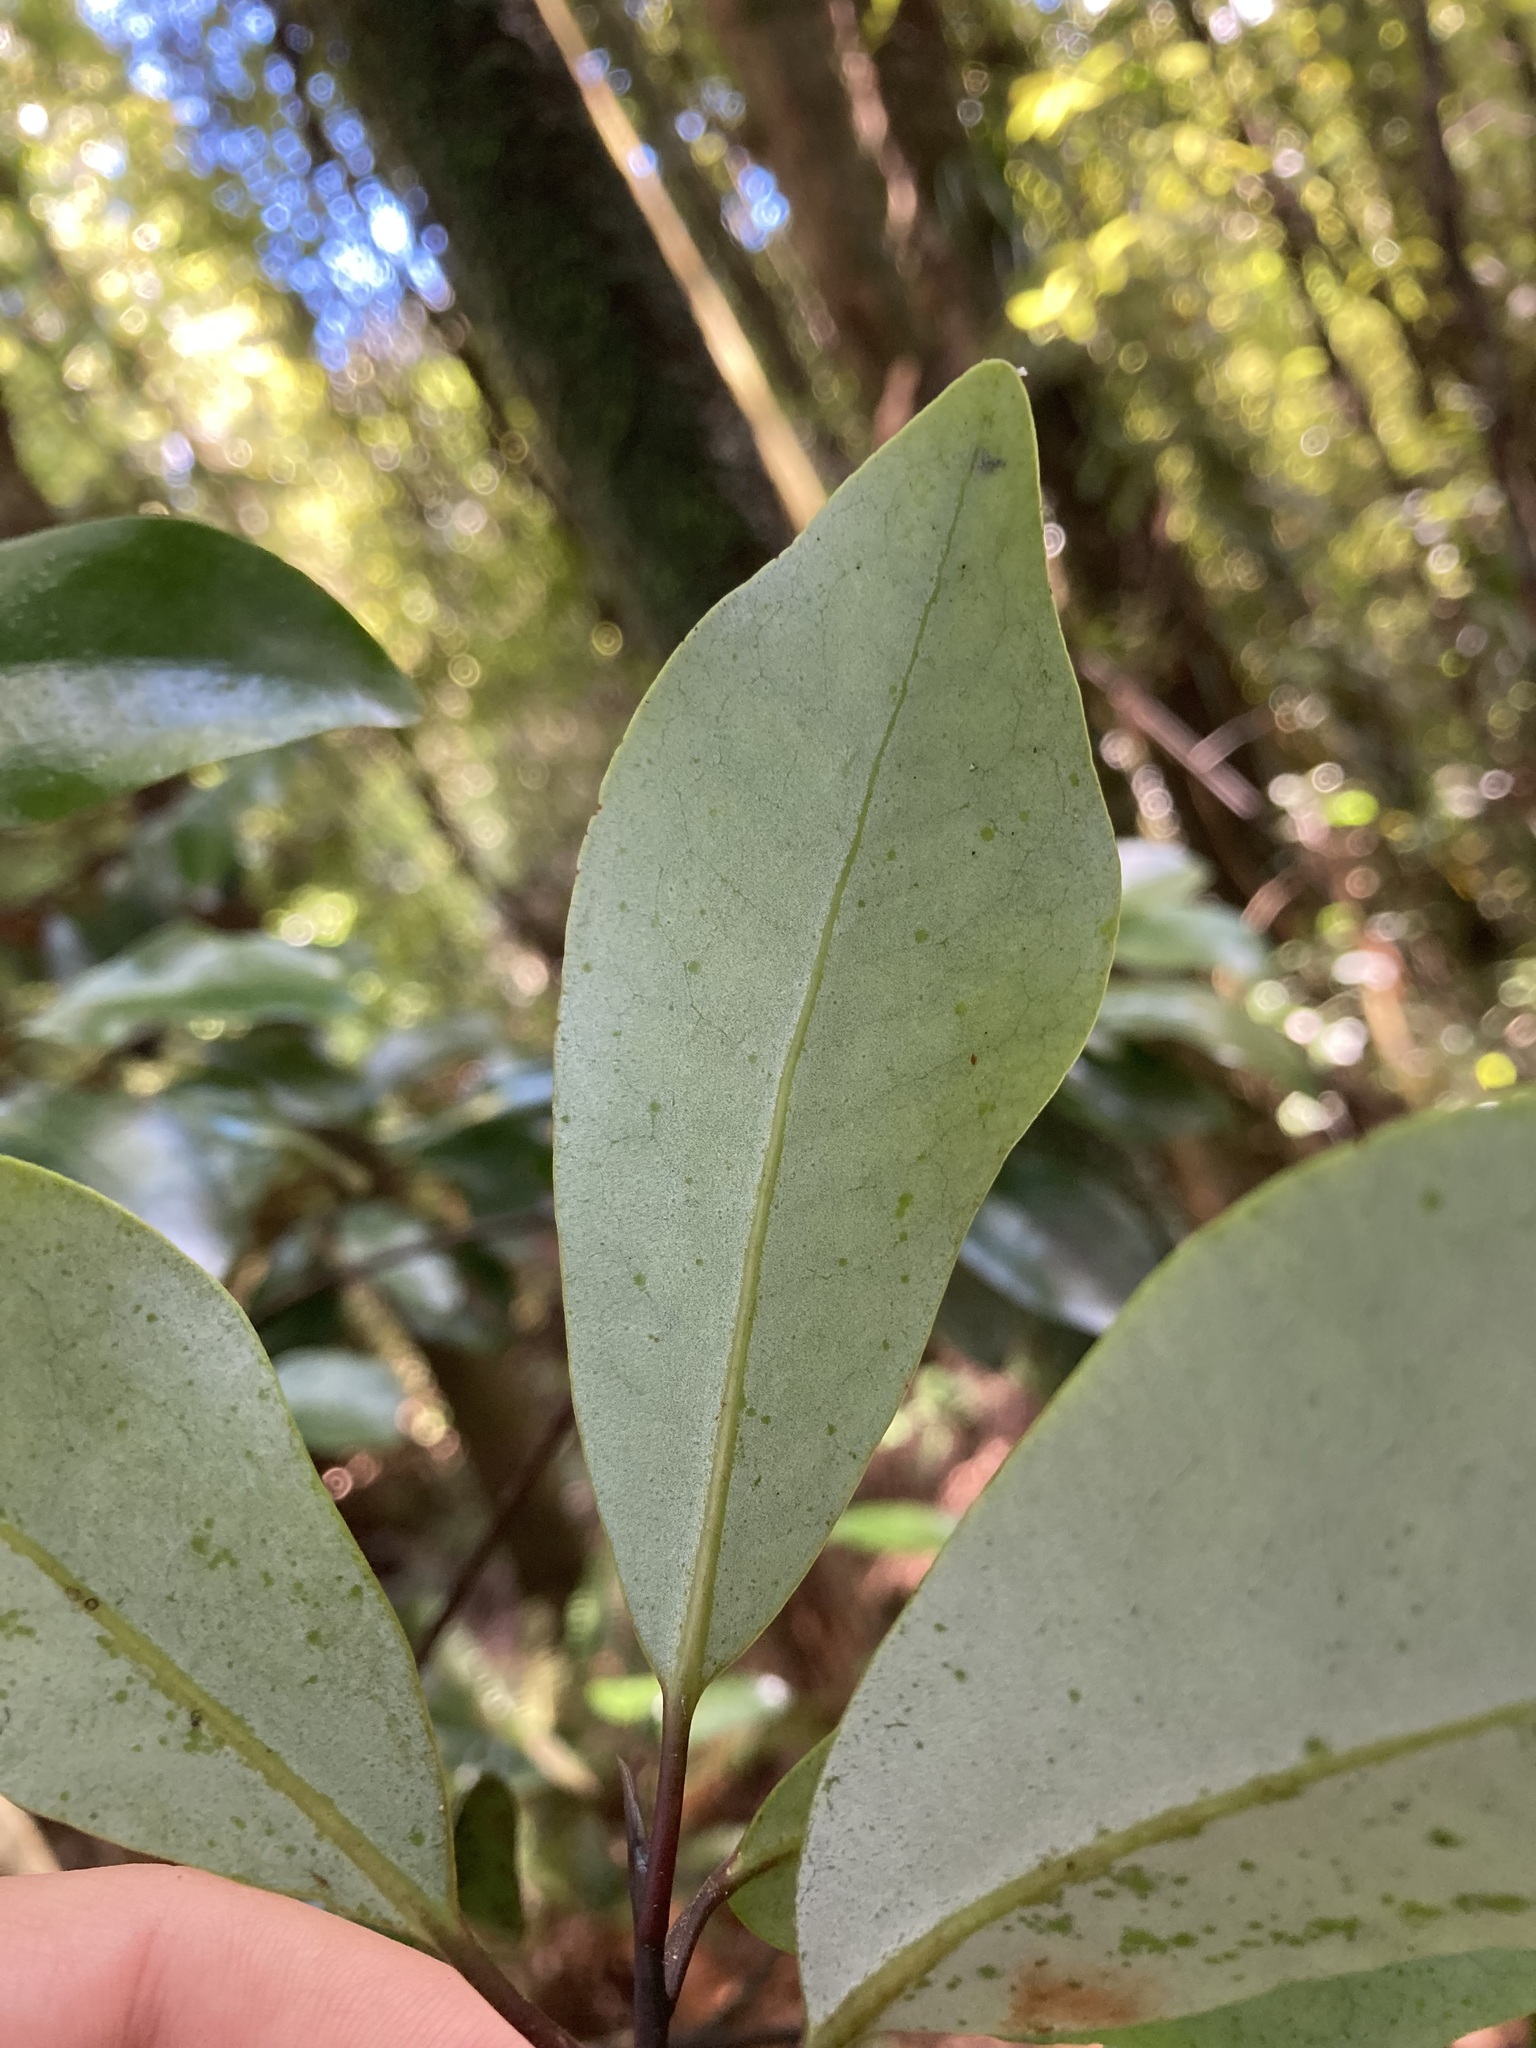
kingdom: Plantae
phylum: Tracheophyta
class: Magnoliopsida
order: Canellales
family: Winteraceae
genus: Pseudowintera
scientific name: Pseudowintera axillaris
